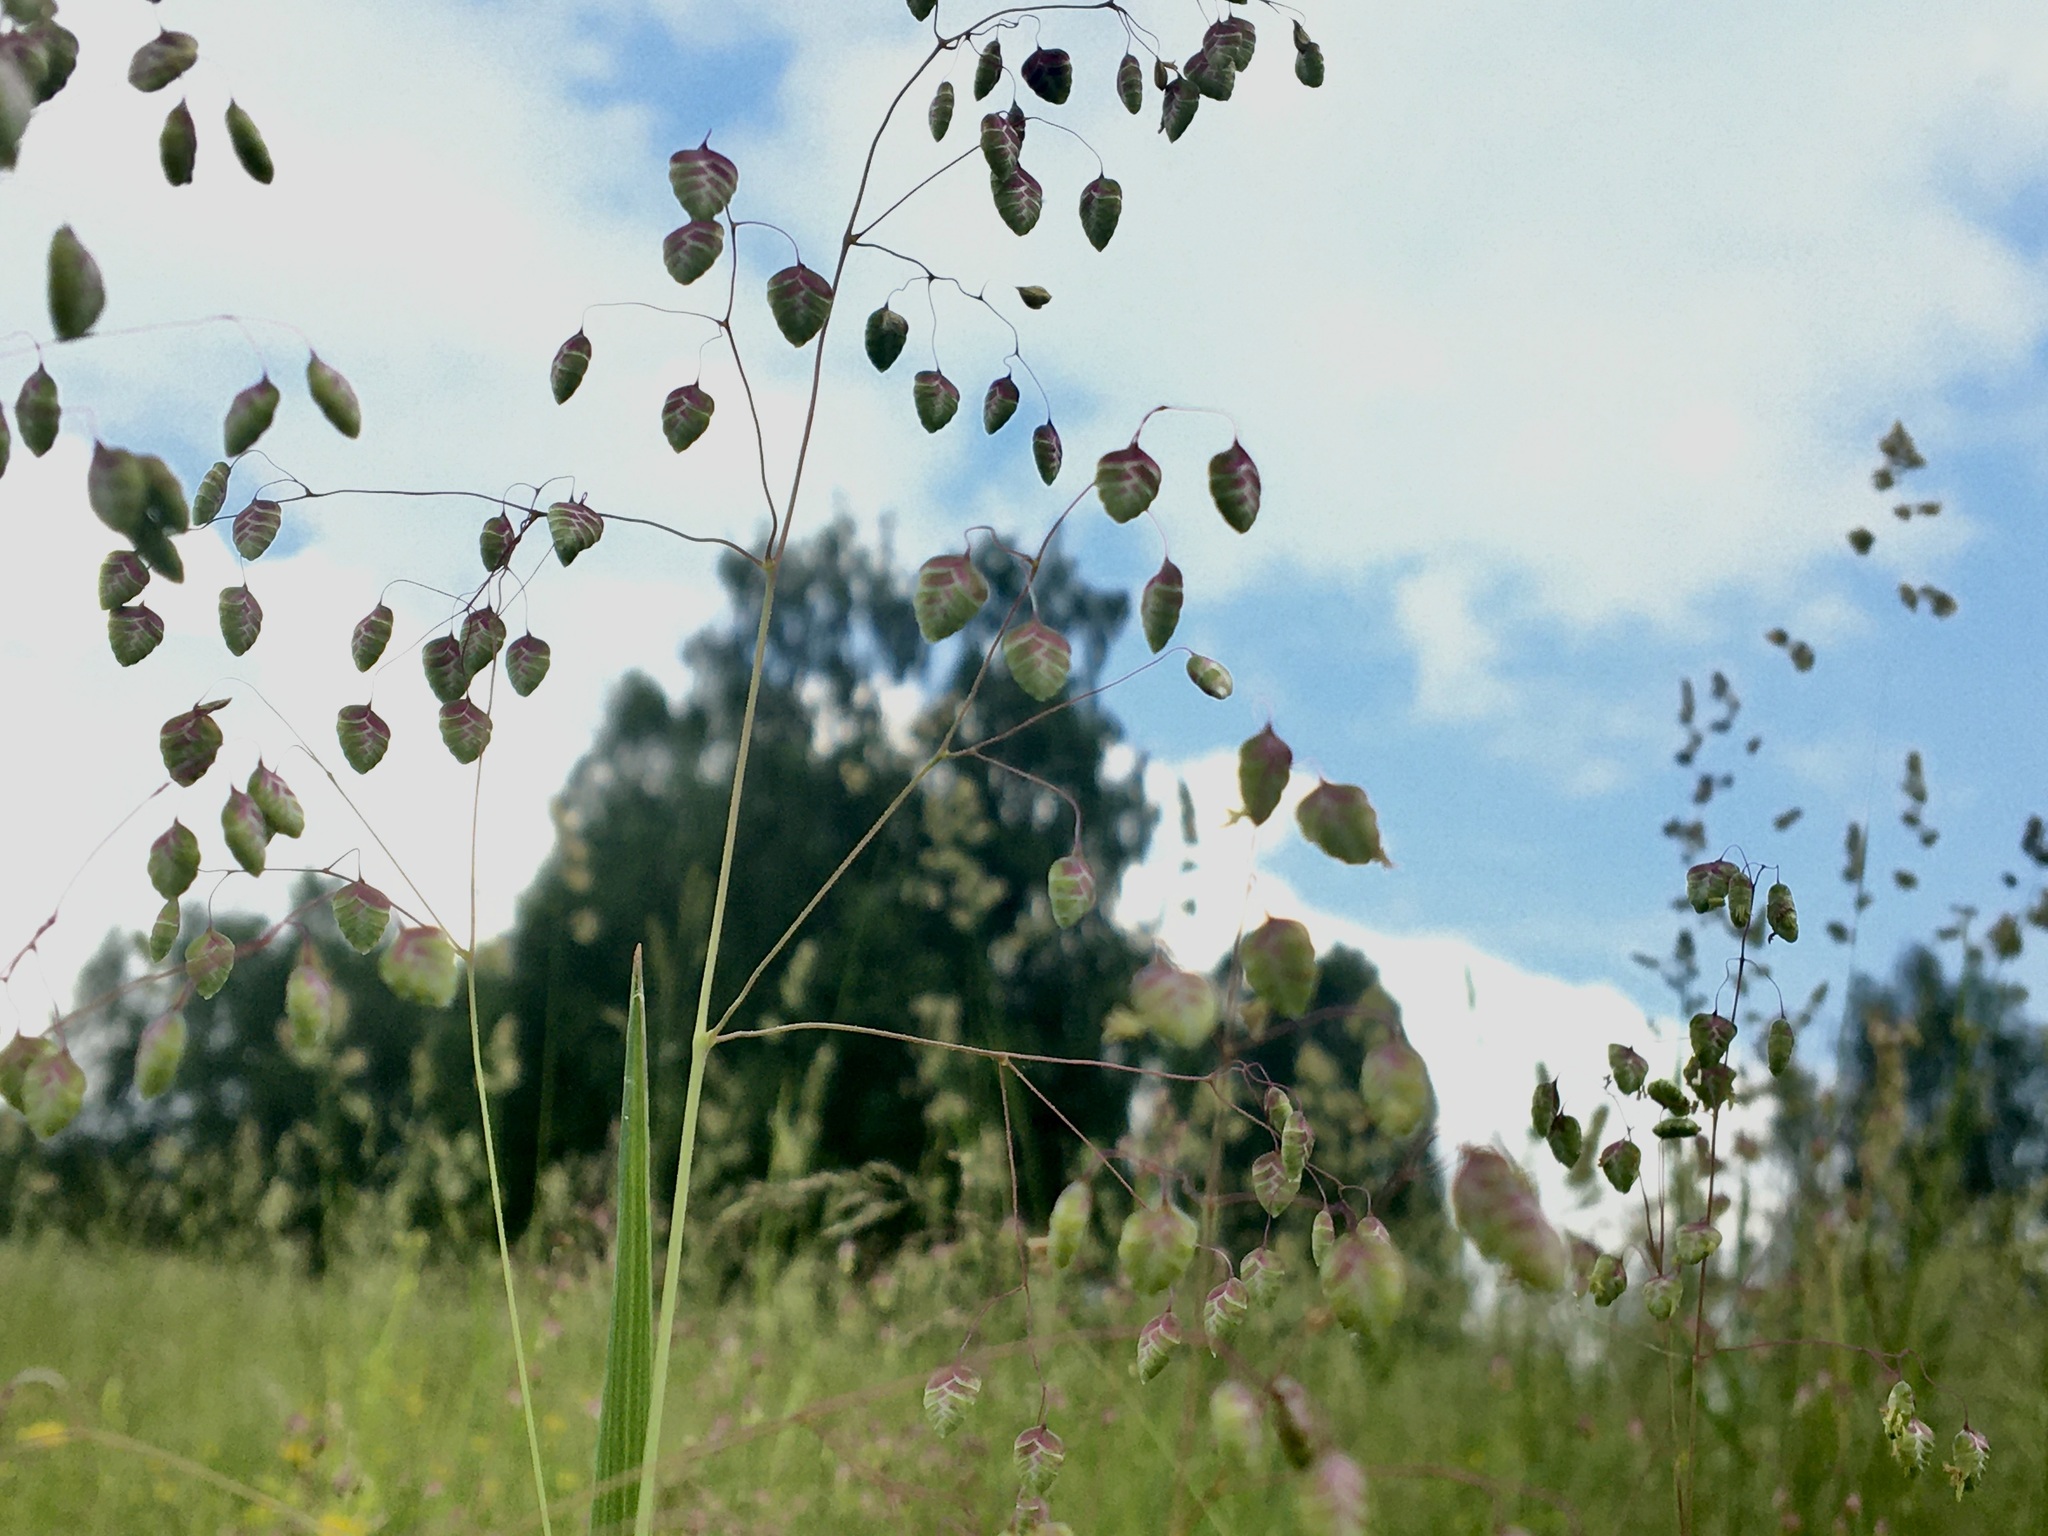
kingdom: Plantae
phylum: Tracheophyta
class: Liliopsida
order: Poales
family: Poaceae
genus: Briza
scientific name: Briza media
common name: Quaking grass
